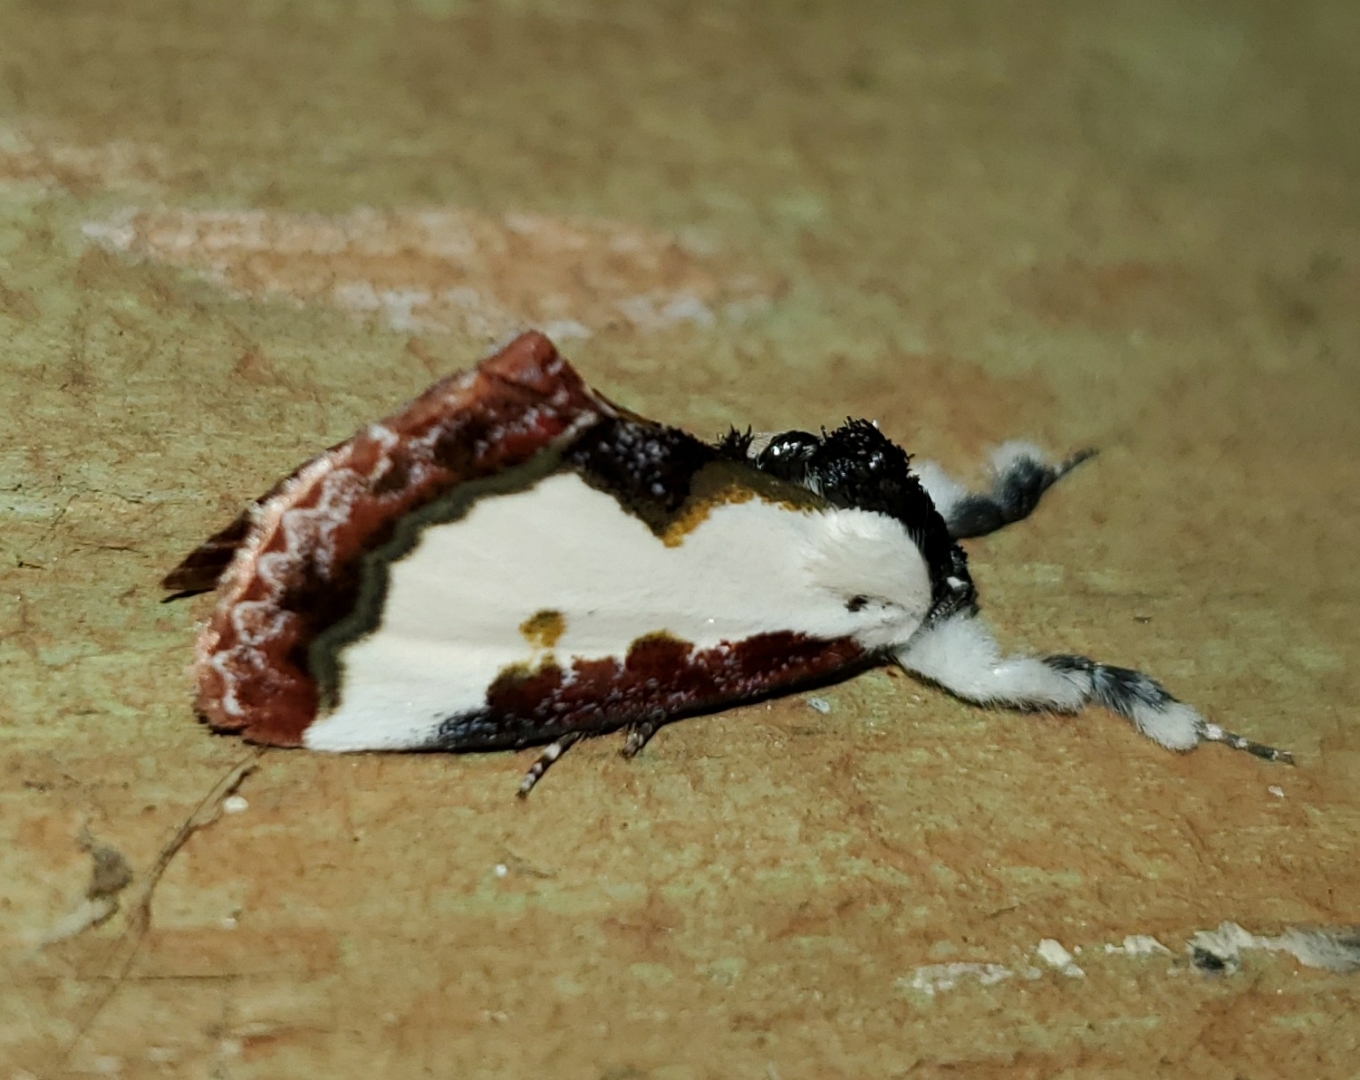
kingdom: Animalia
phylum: Arthropoda
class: Insecta
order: Lepidoptera
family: Noctuidae
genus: Eudryas
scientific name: Eudryas unio
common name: Pearly wood-nymph
